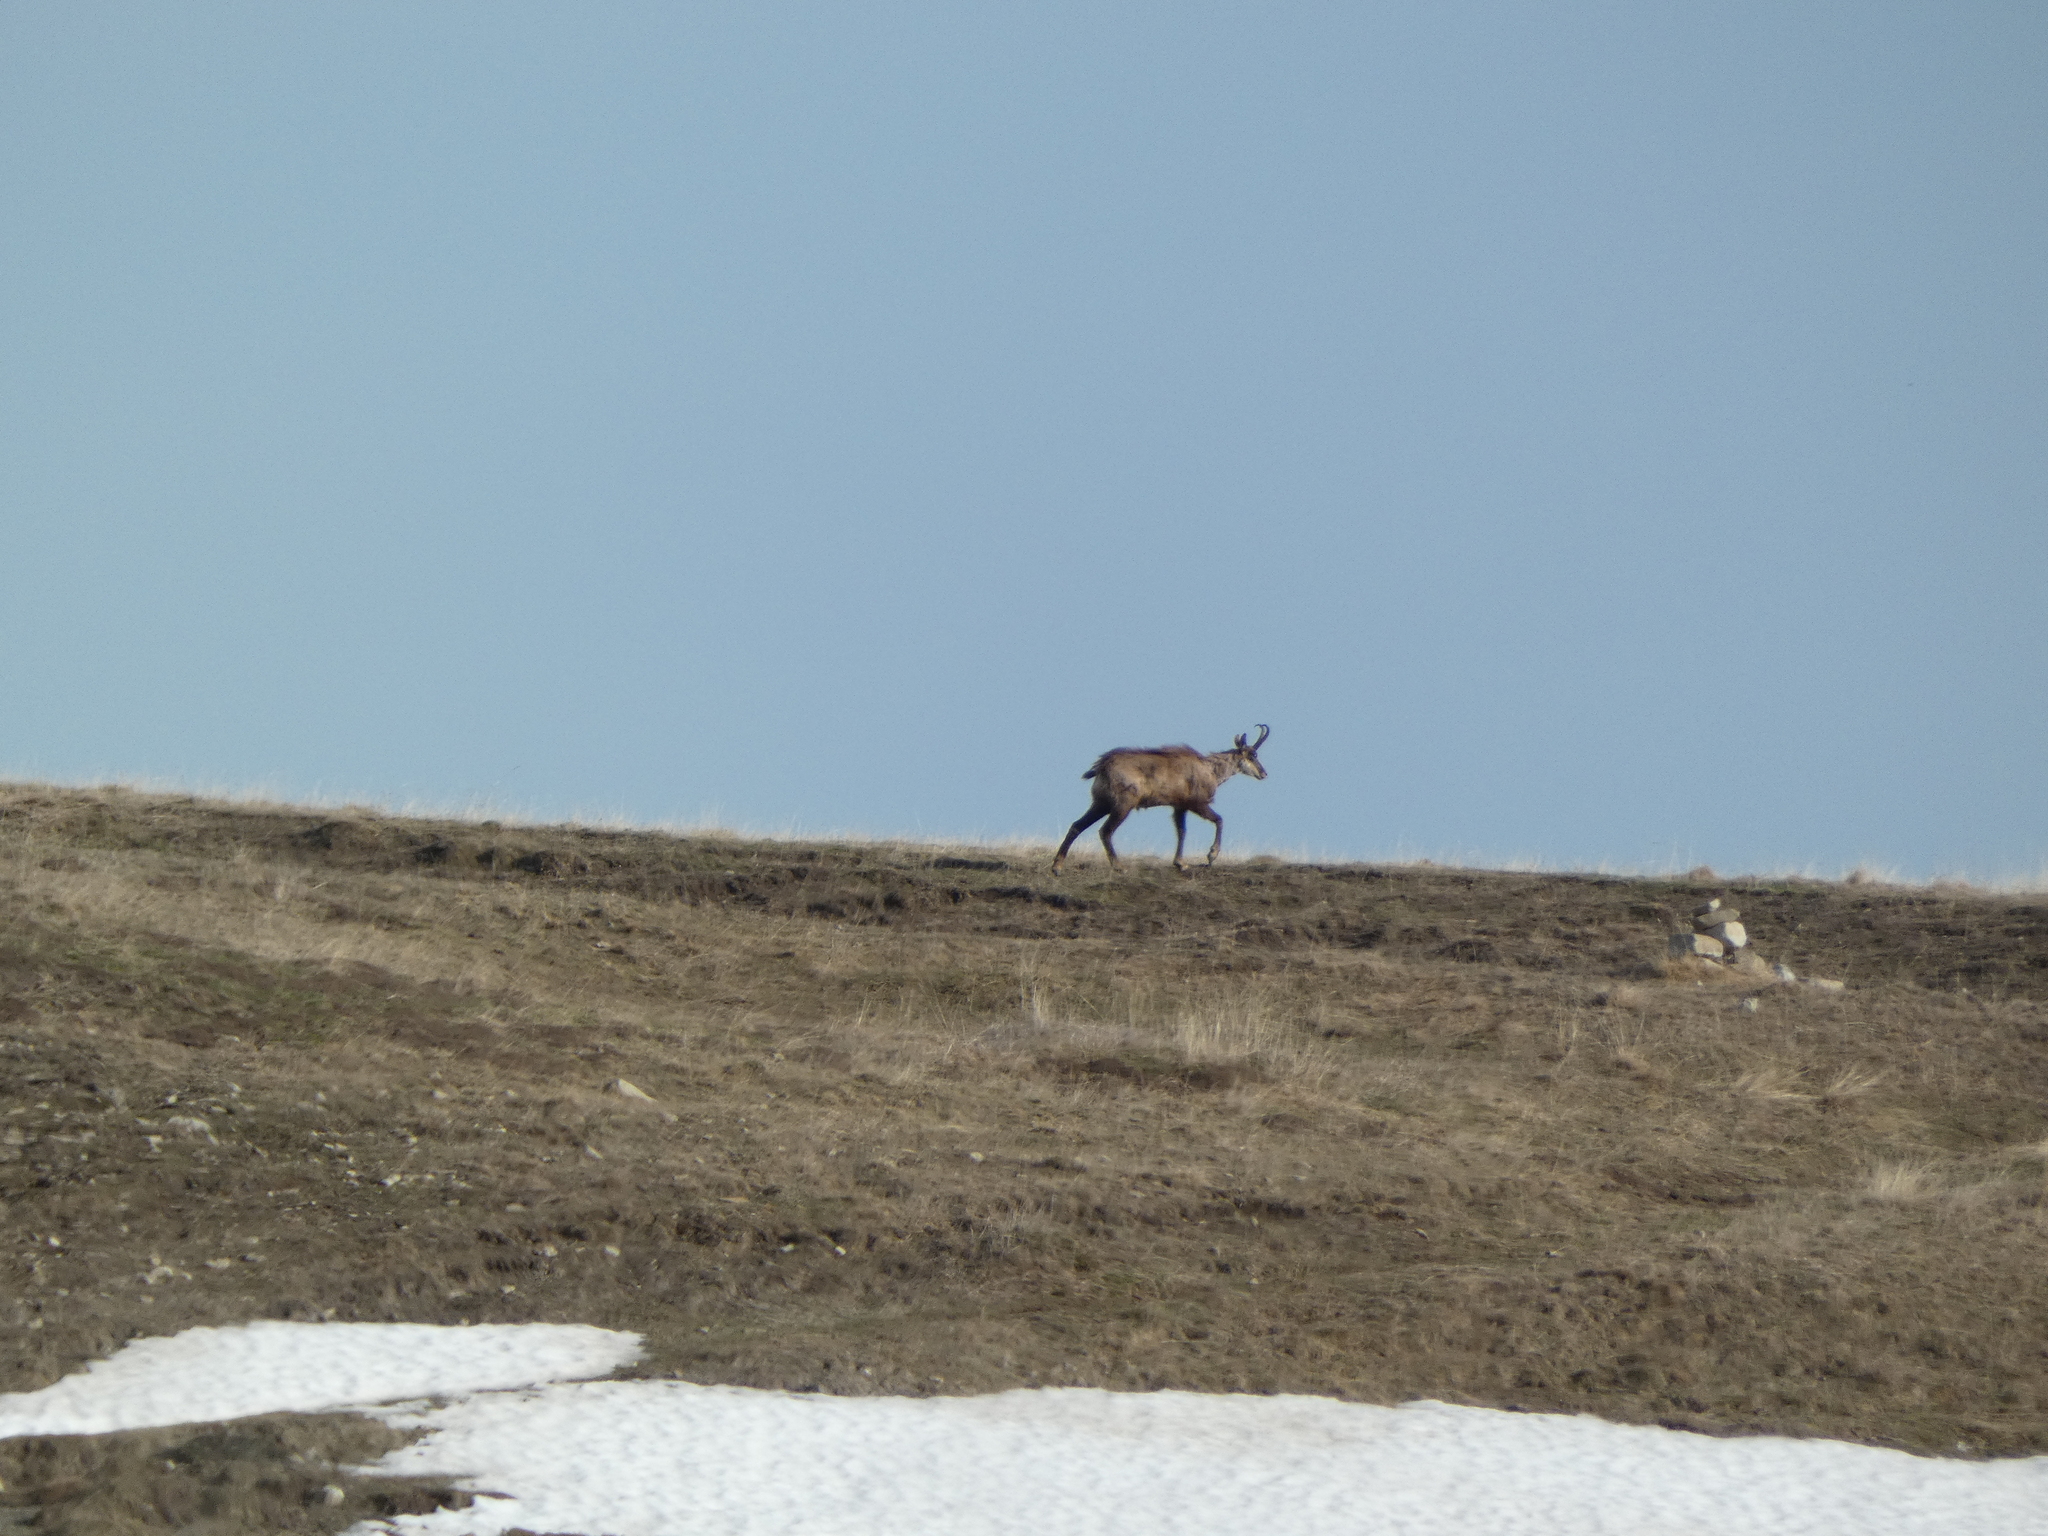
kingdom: Animalia
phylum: Chordata
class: Mammalia
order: Artiodactyla
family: Bovidae
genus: Rupicapra
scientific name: Rupicapra rupicapra
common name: Chamois
